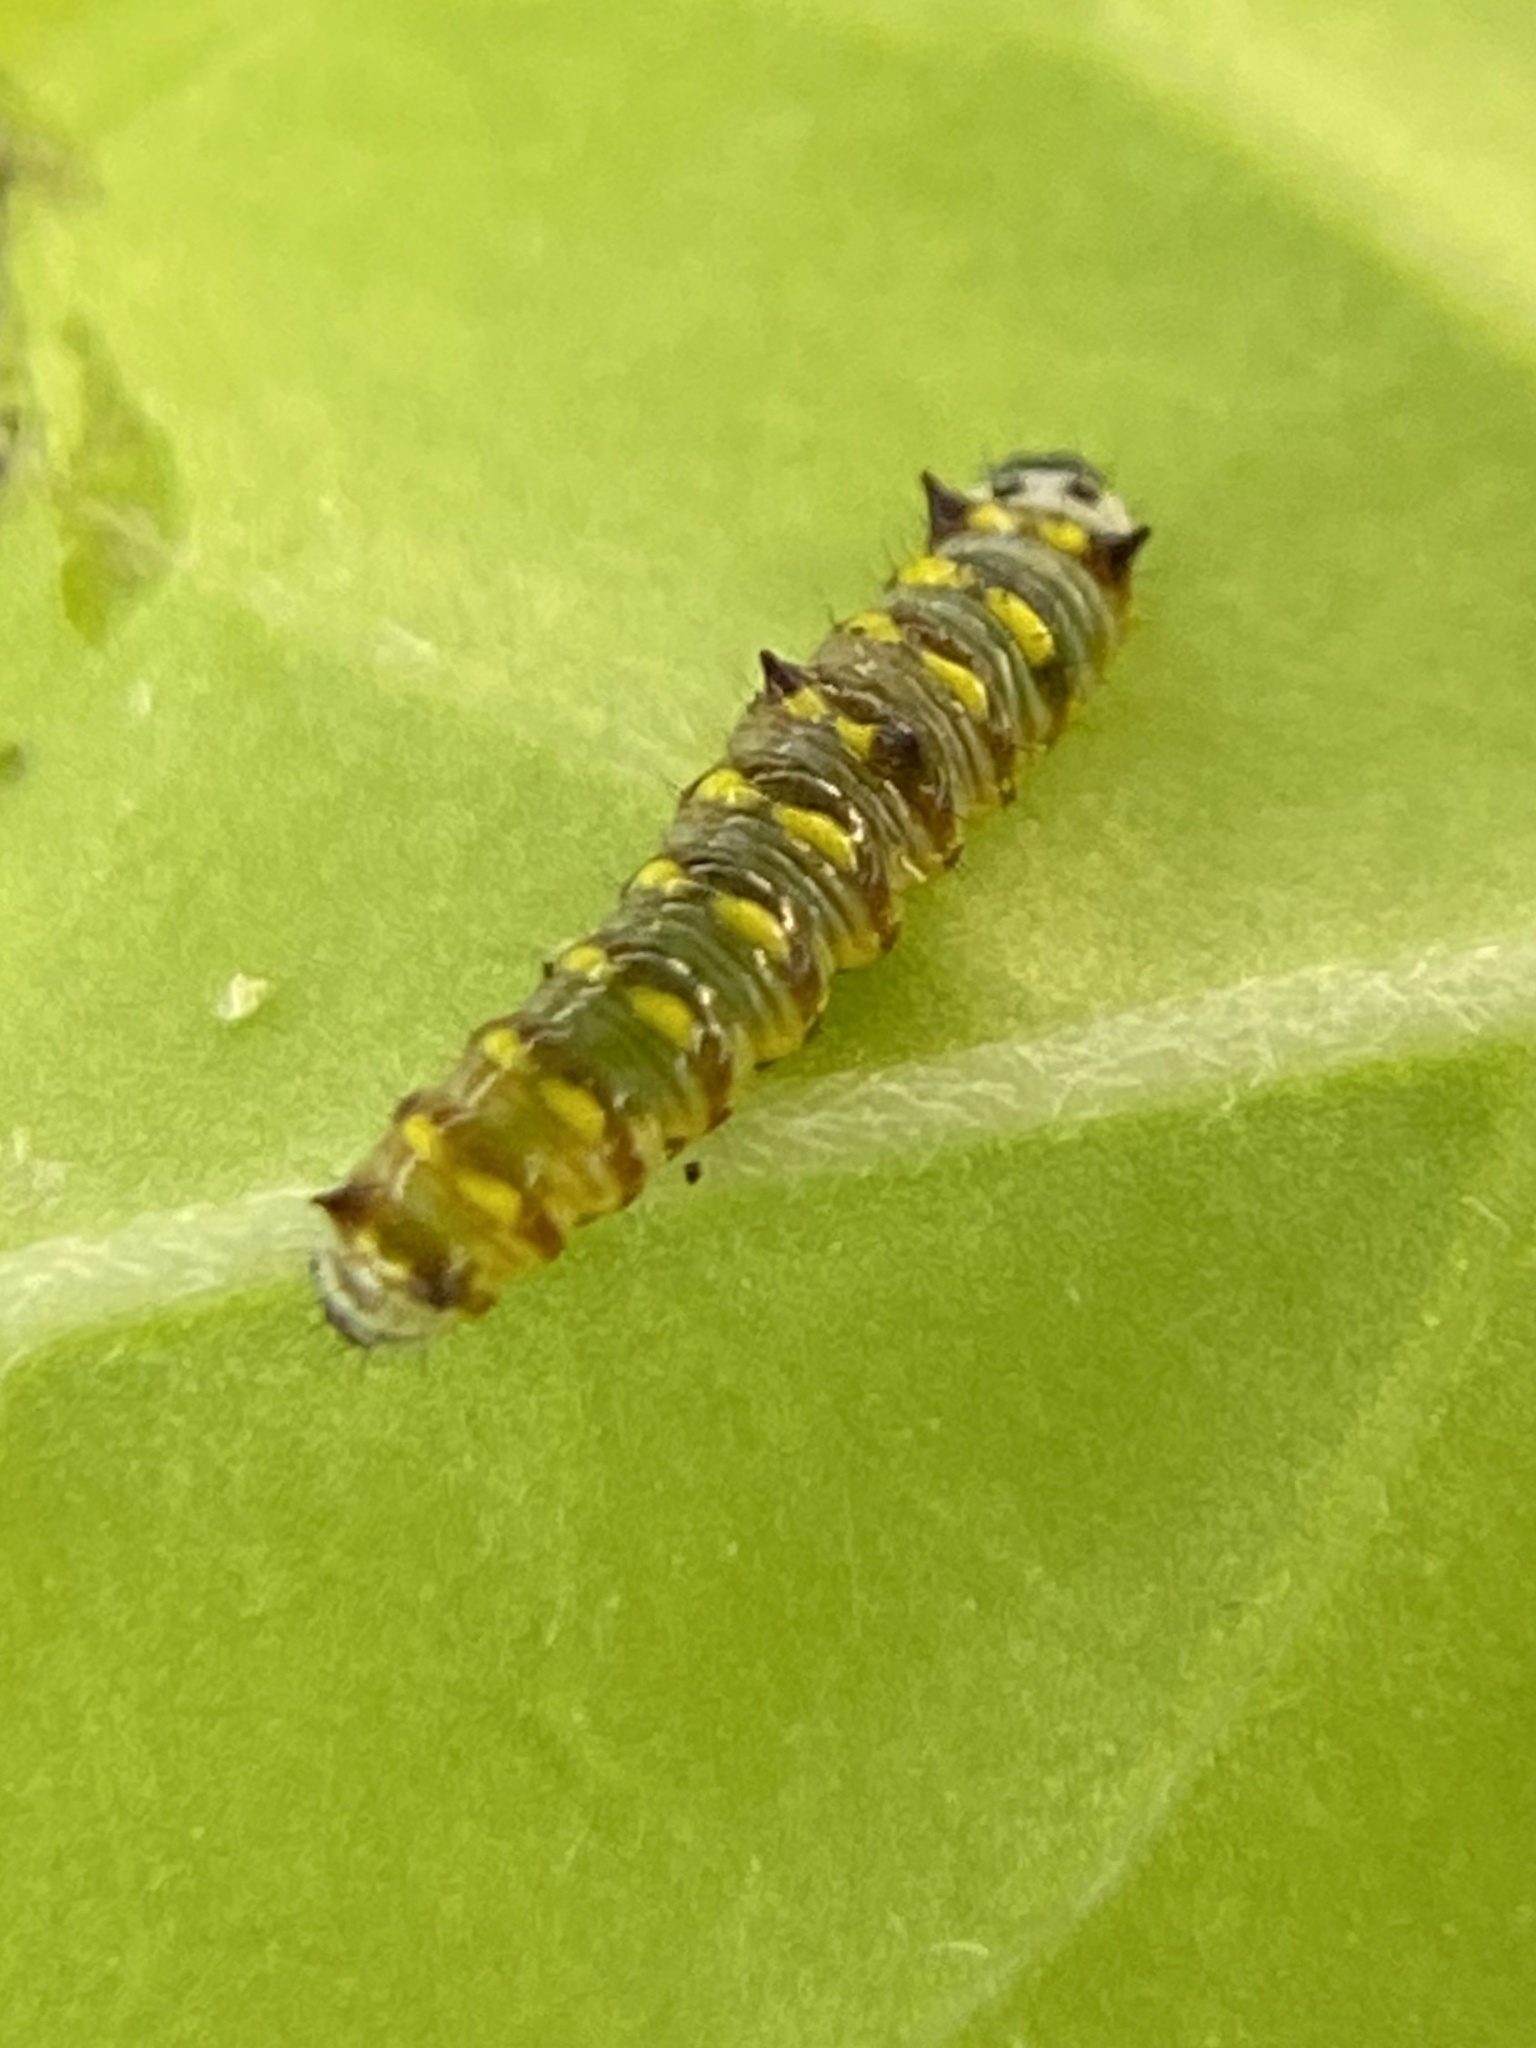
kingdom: Animalia
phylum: Arthropoda
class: Insecta
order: Lepidoptera
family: Nymphalidae
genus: Danaus
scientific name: Danaus gilippus
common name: Queen
